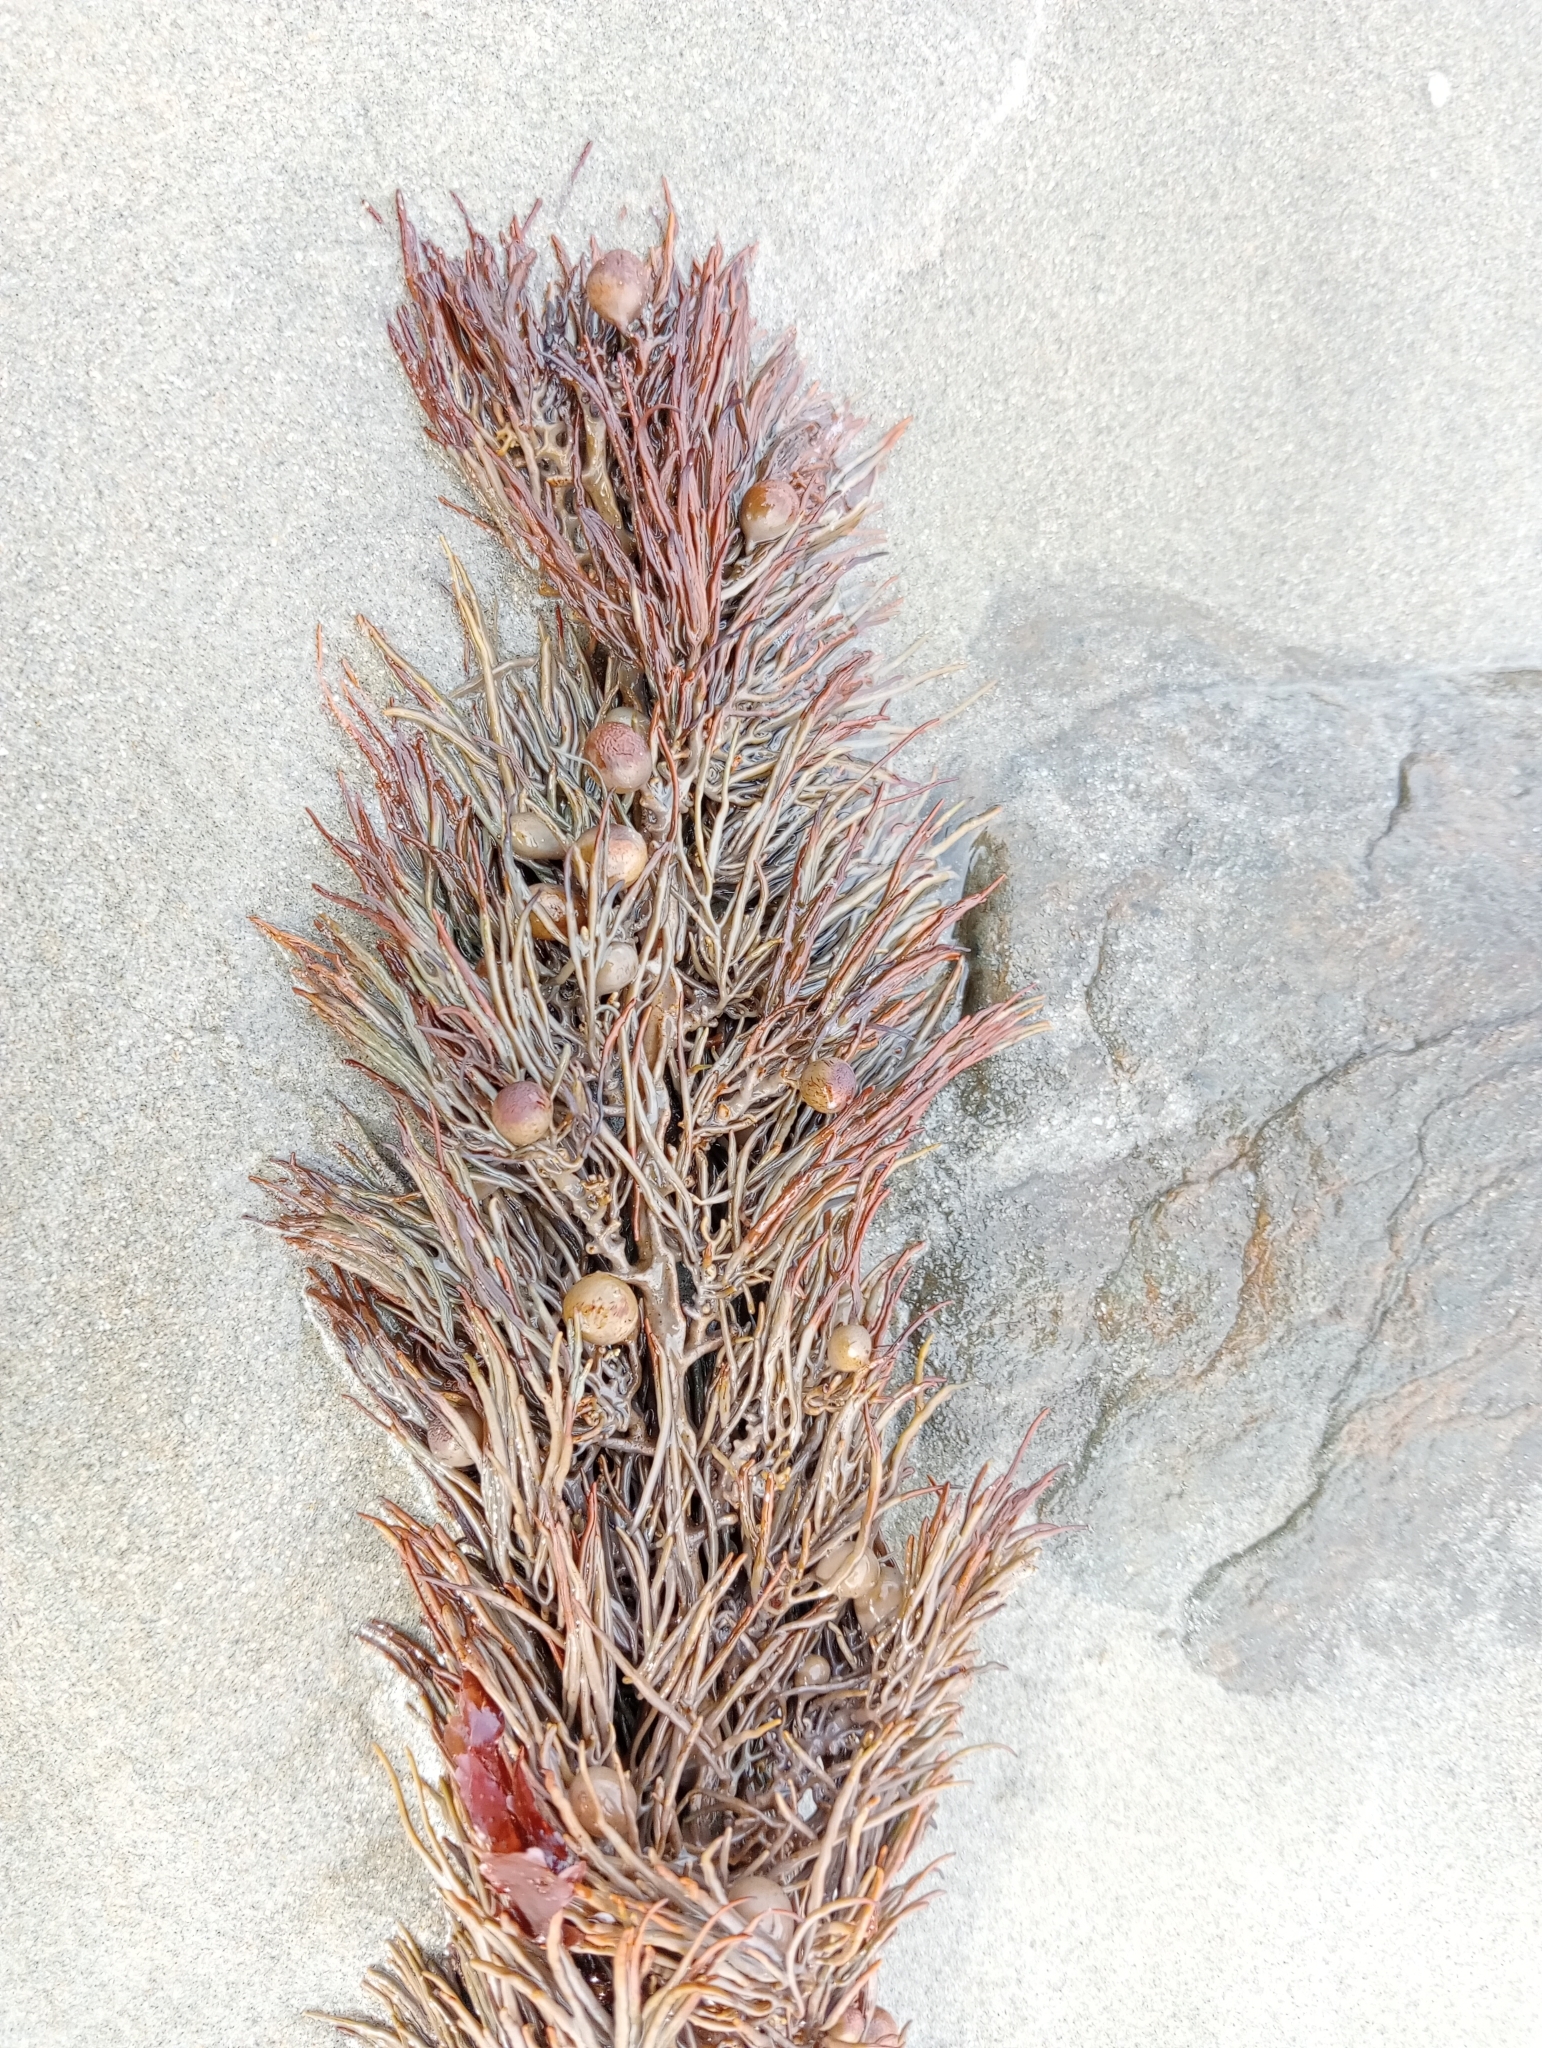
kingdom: Chromista
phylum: Ochrophyta
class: Phaeophyceae
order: Fucales
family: Sargassaceae
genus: Cystophora
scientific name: Cystophora retroflexa
